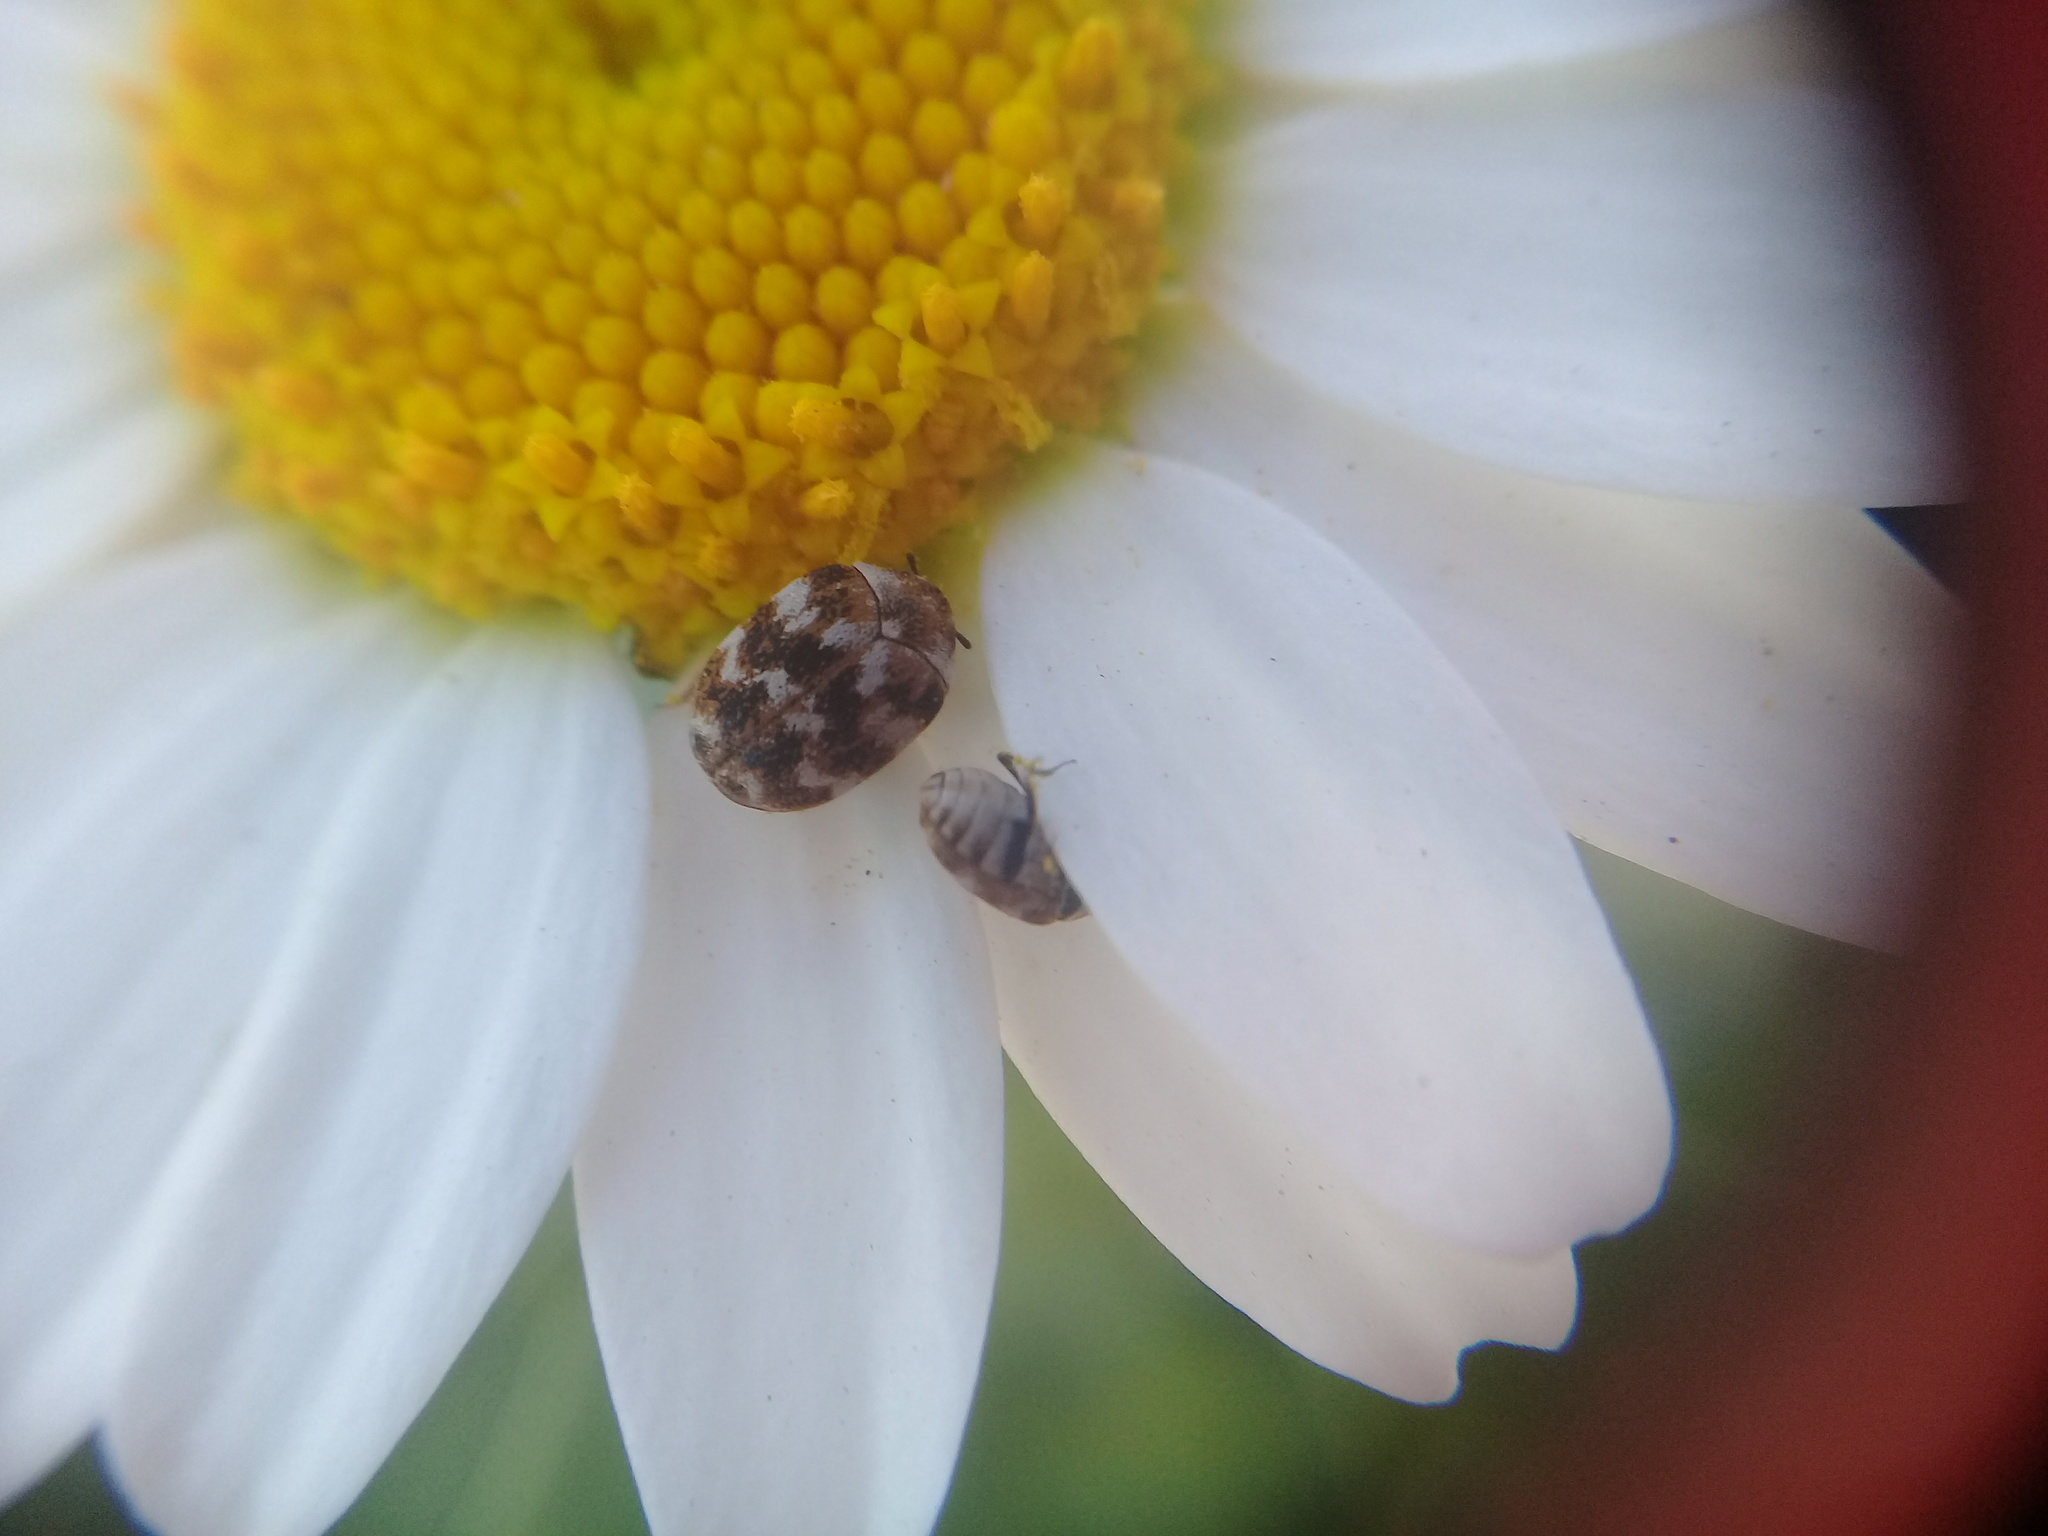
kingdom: Animalia
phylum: Arthropoda
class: Insecta
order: Coleoptera
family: Dermestidae
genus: Anthrenus
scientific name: Anthrenus verbasci
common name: Varied carpet beetle
